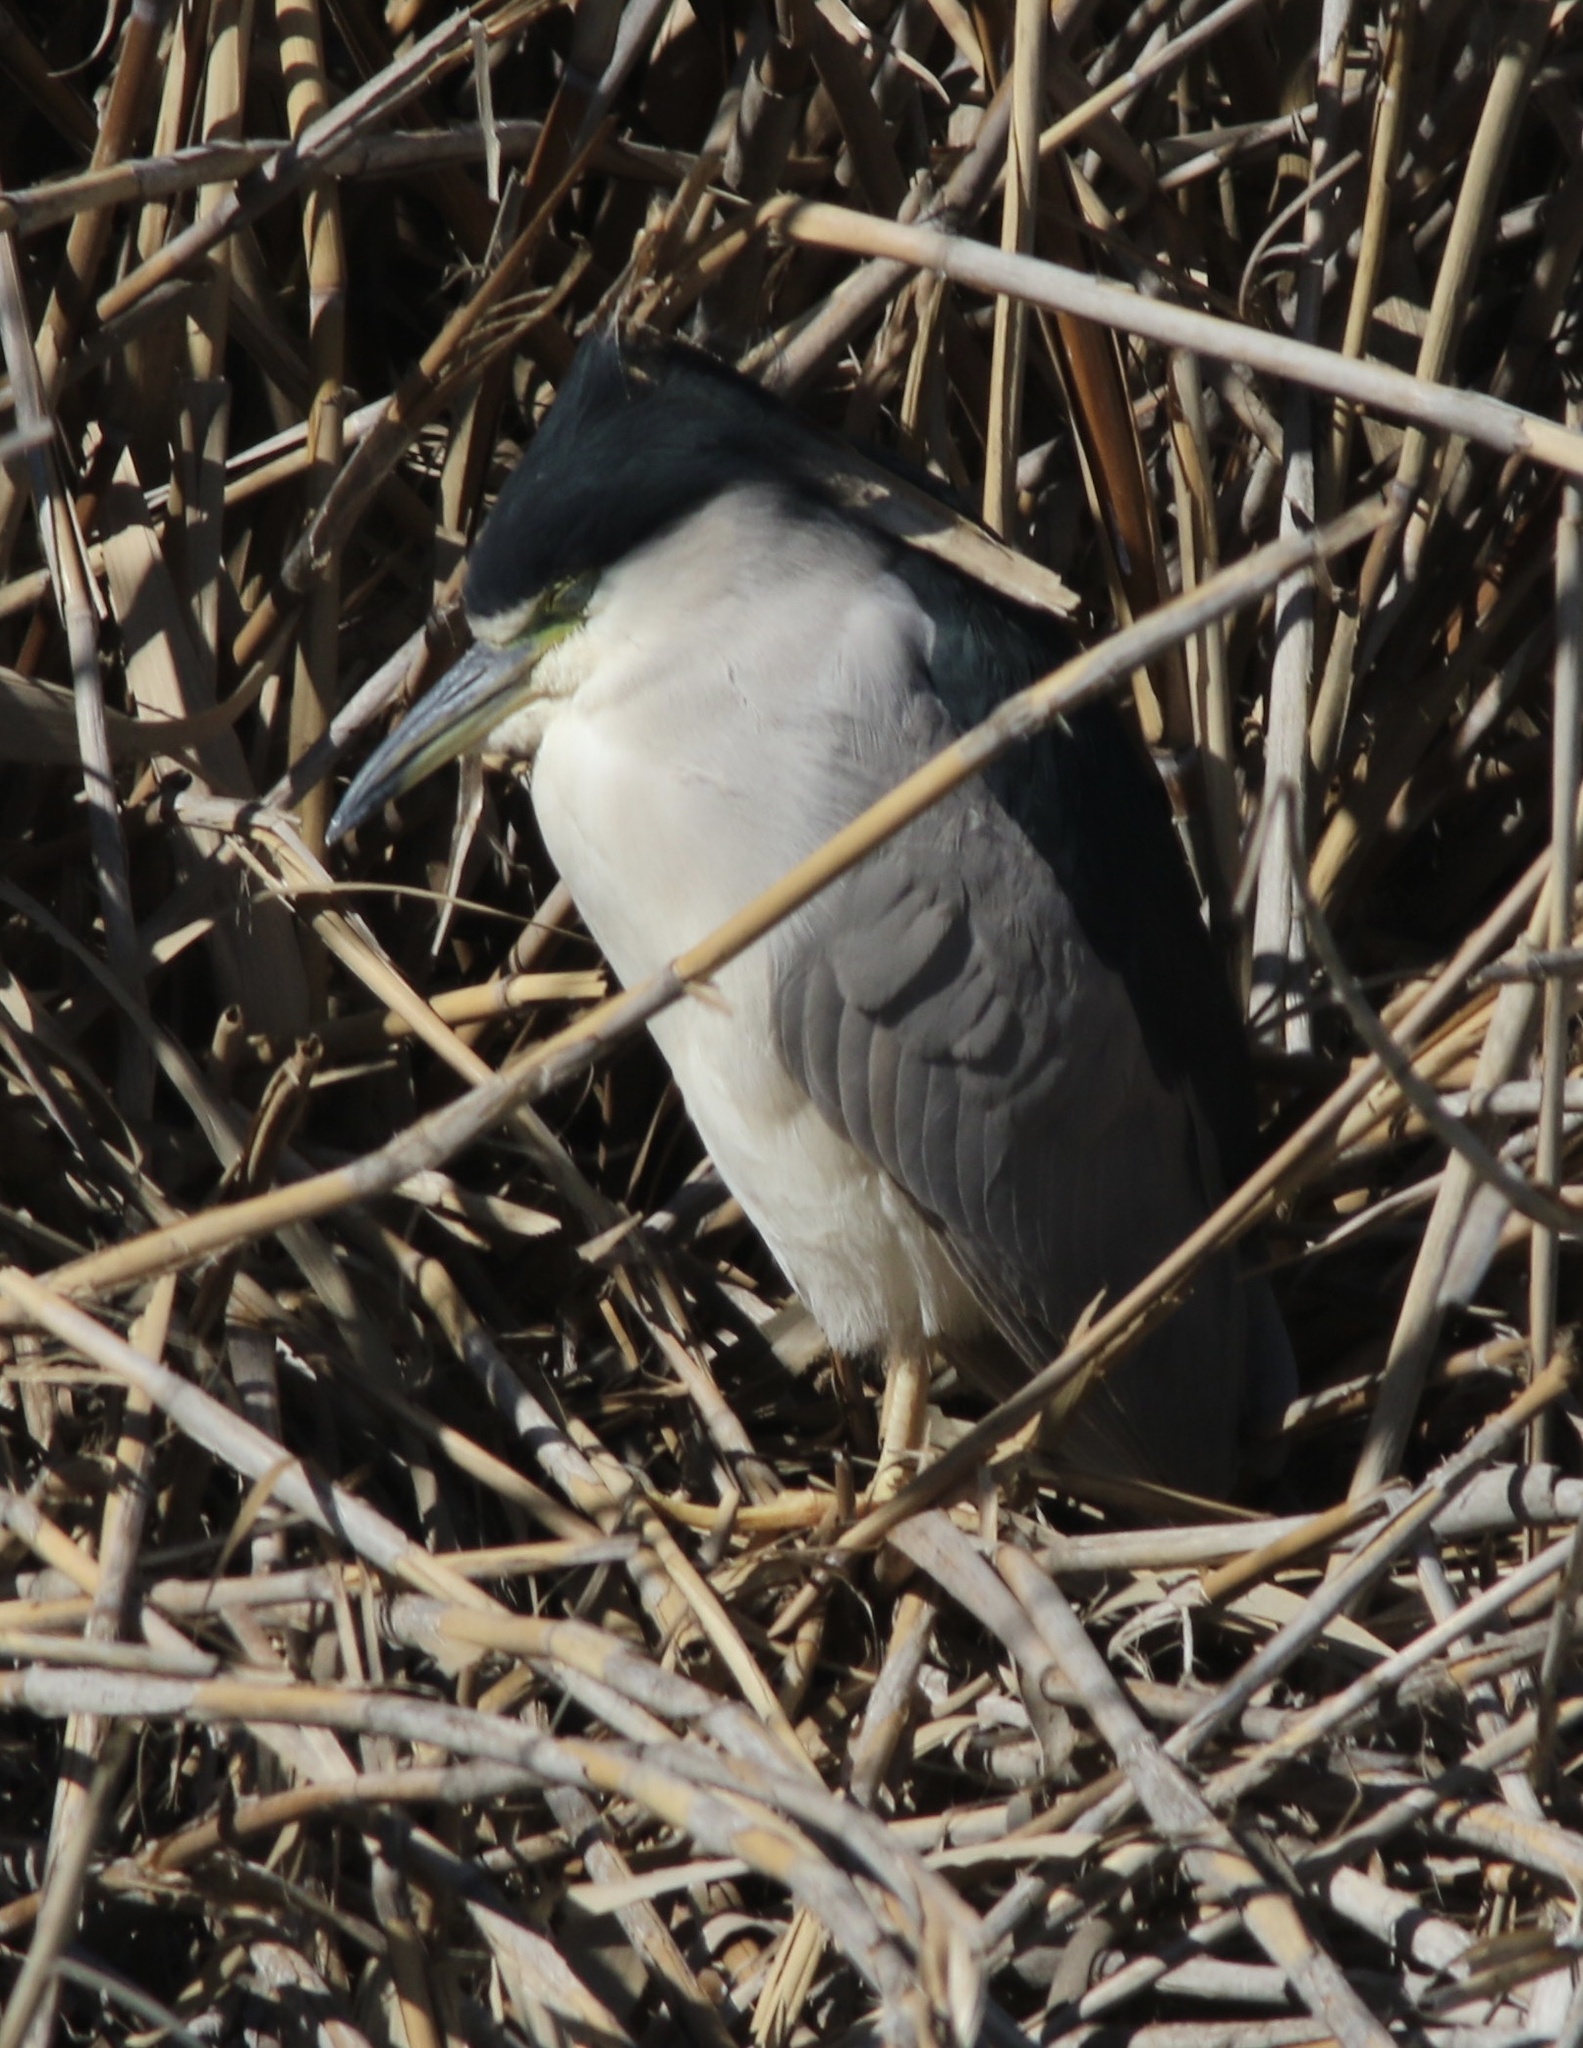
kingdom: Animalia
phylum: Chordata
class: Aves
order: Pelecaniformes
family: Ardeidae
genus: Nycticorax
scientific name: Nycticorax nycticorax
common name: Black-crowned night heron
